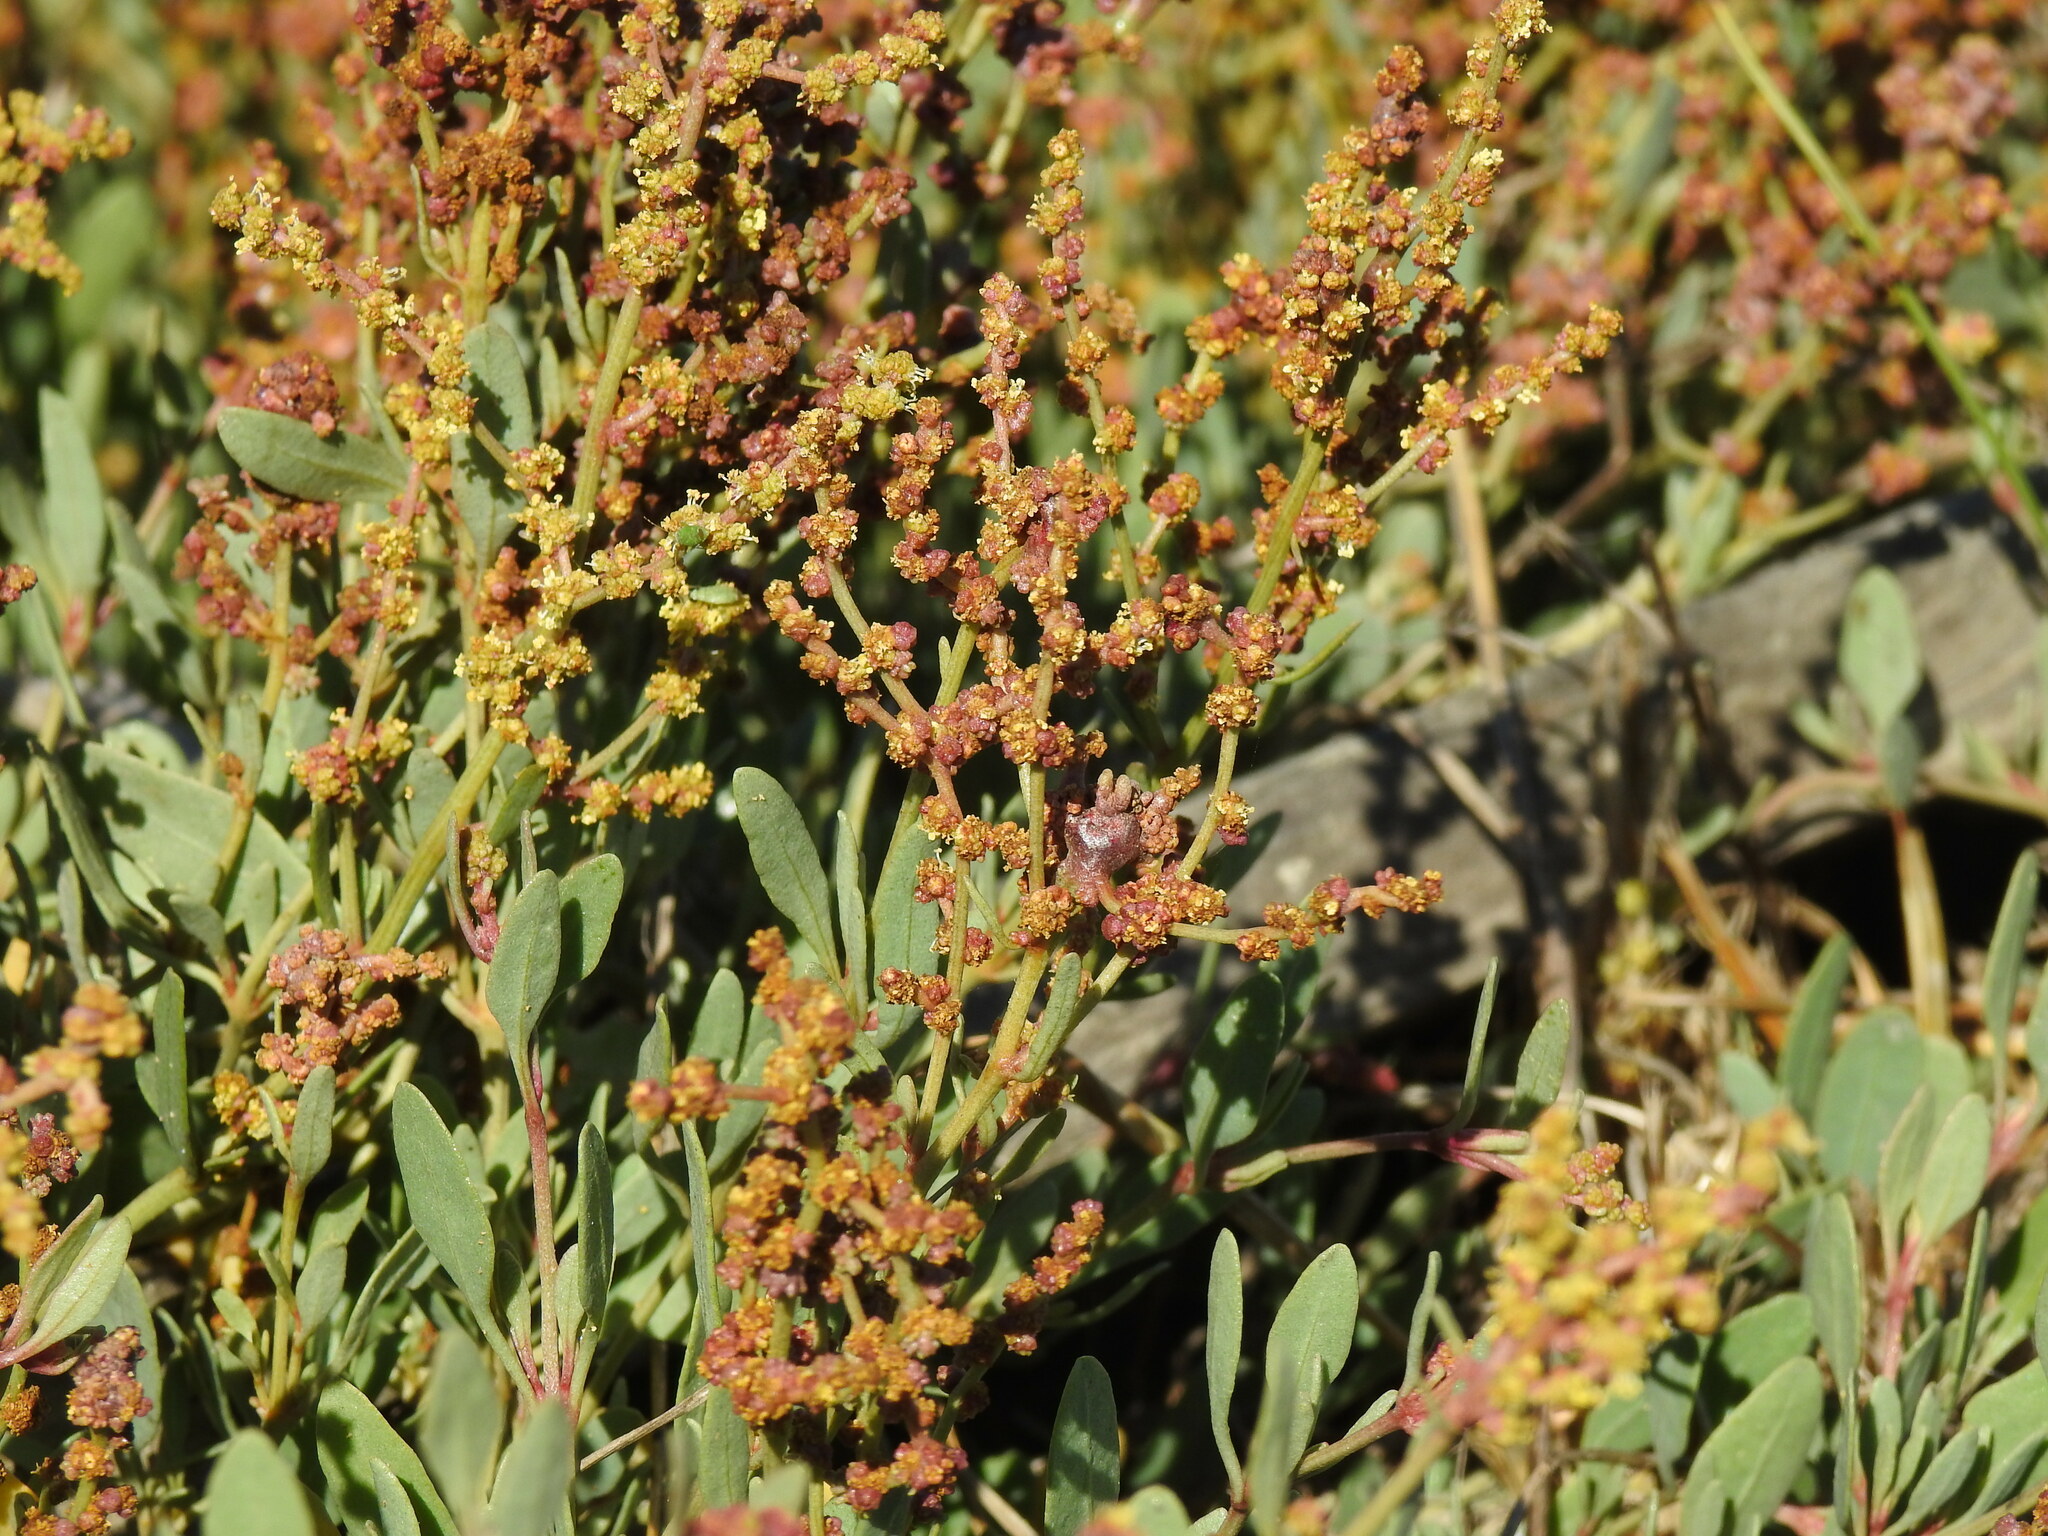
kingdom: Plantae
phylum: Tracheophyta
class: Magnoliopsida
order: Caryophyllales
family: Amaranthaceae
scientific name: Amaranthaceae
